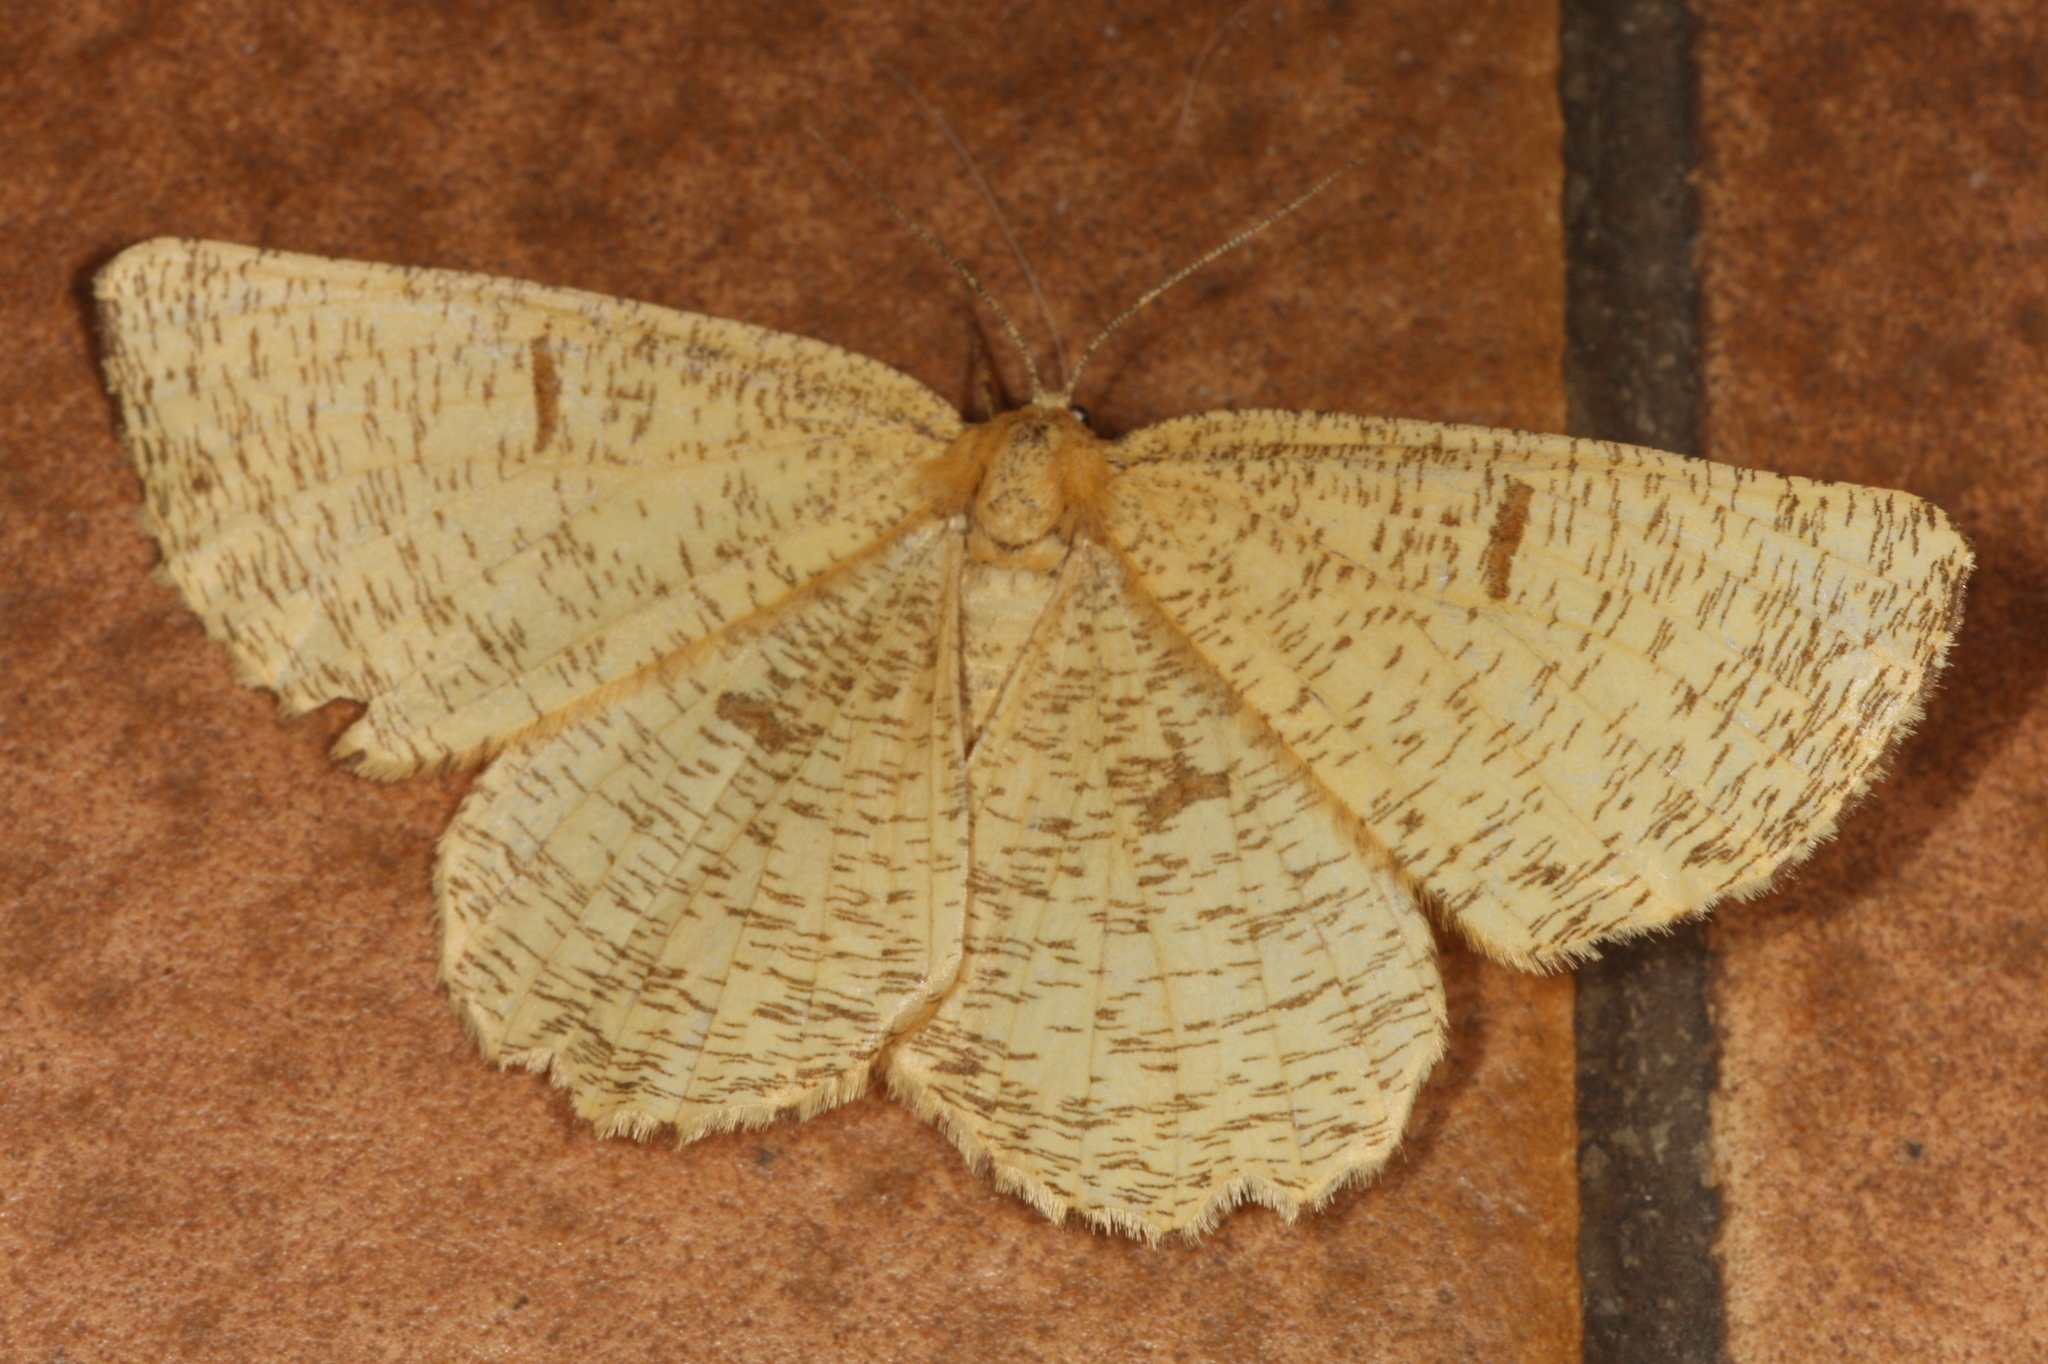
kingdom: Animalia
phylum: Arthropoda
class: Insecta
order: Lepidoptera
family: Geometridae
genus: Angerona
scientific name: Angerona prunaria
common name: Orange moth
